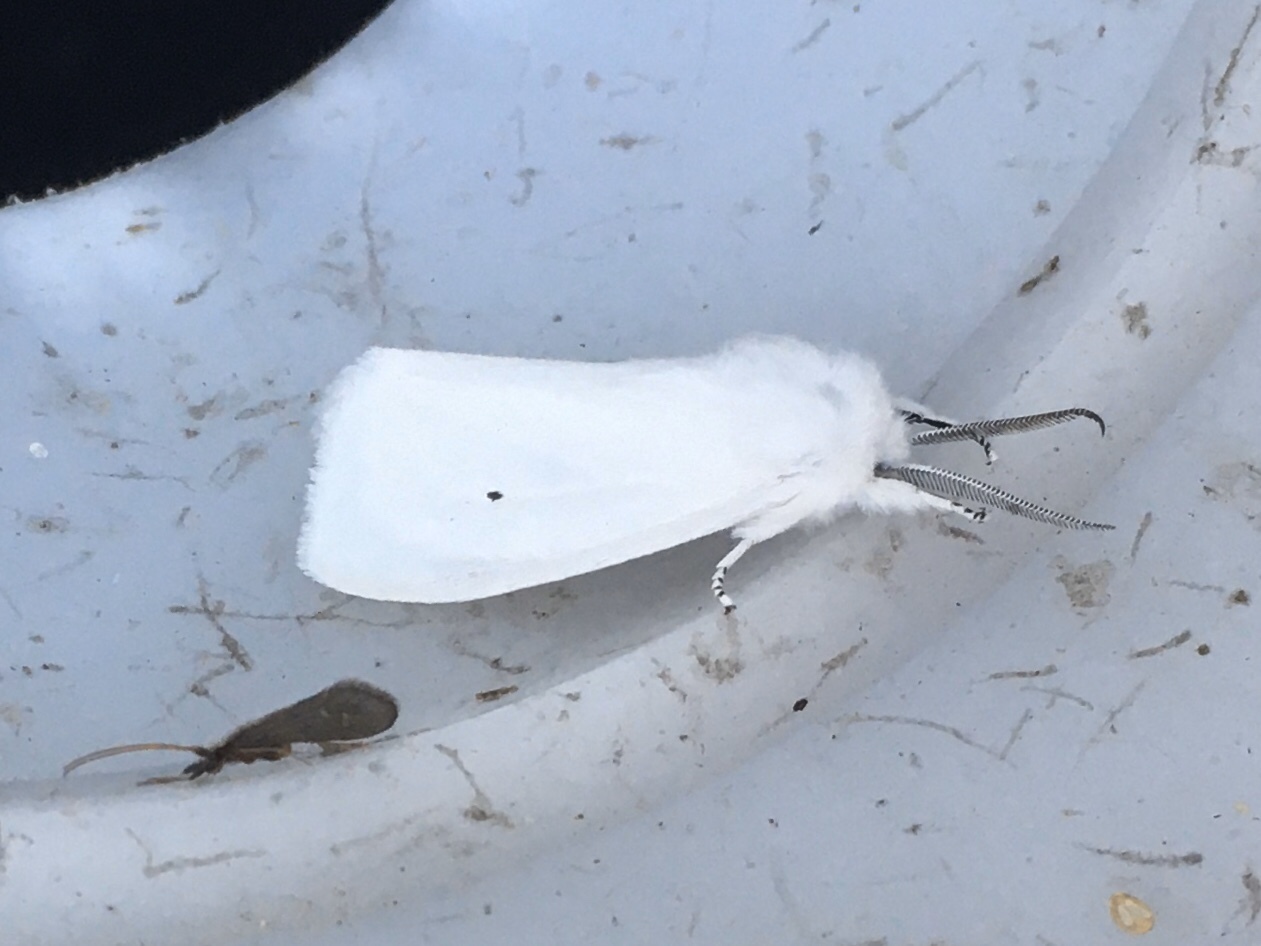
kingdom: Animalia
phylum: Arthropoda
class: Insecta
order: Lepidoptera
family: Erebidae
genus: Spilosoma
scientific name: Spilosoma virginica
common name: Virginia tiger moth
